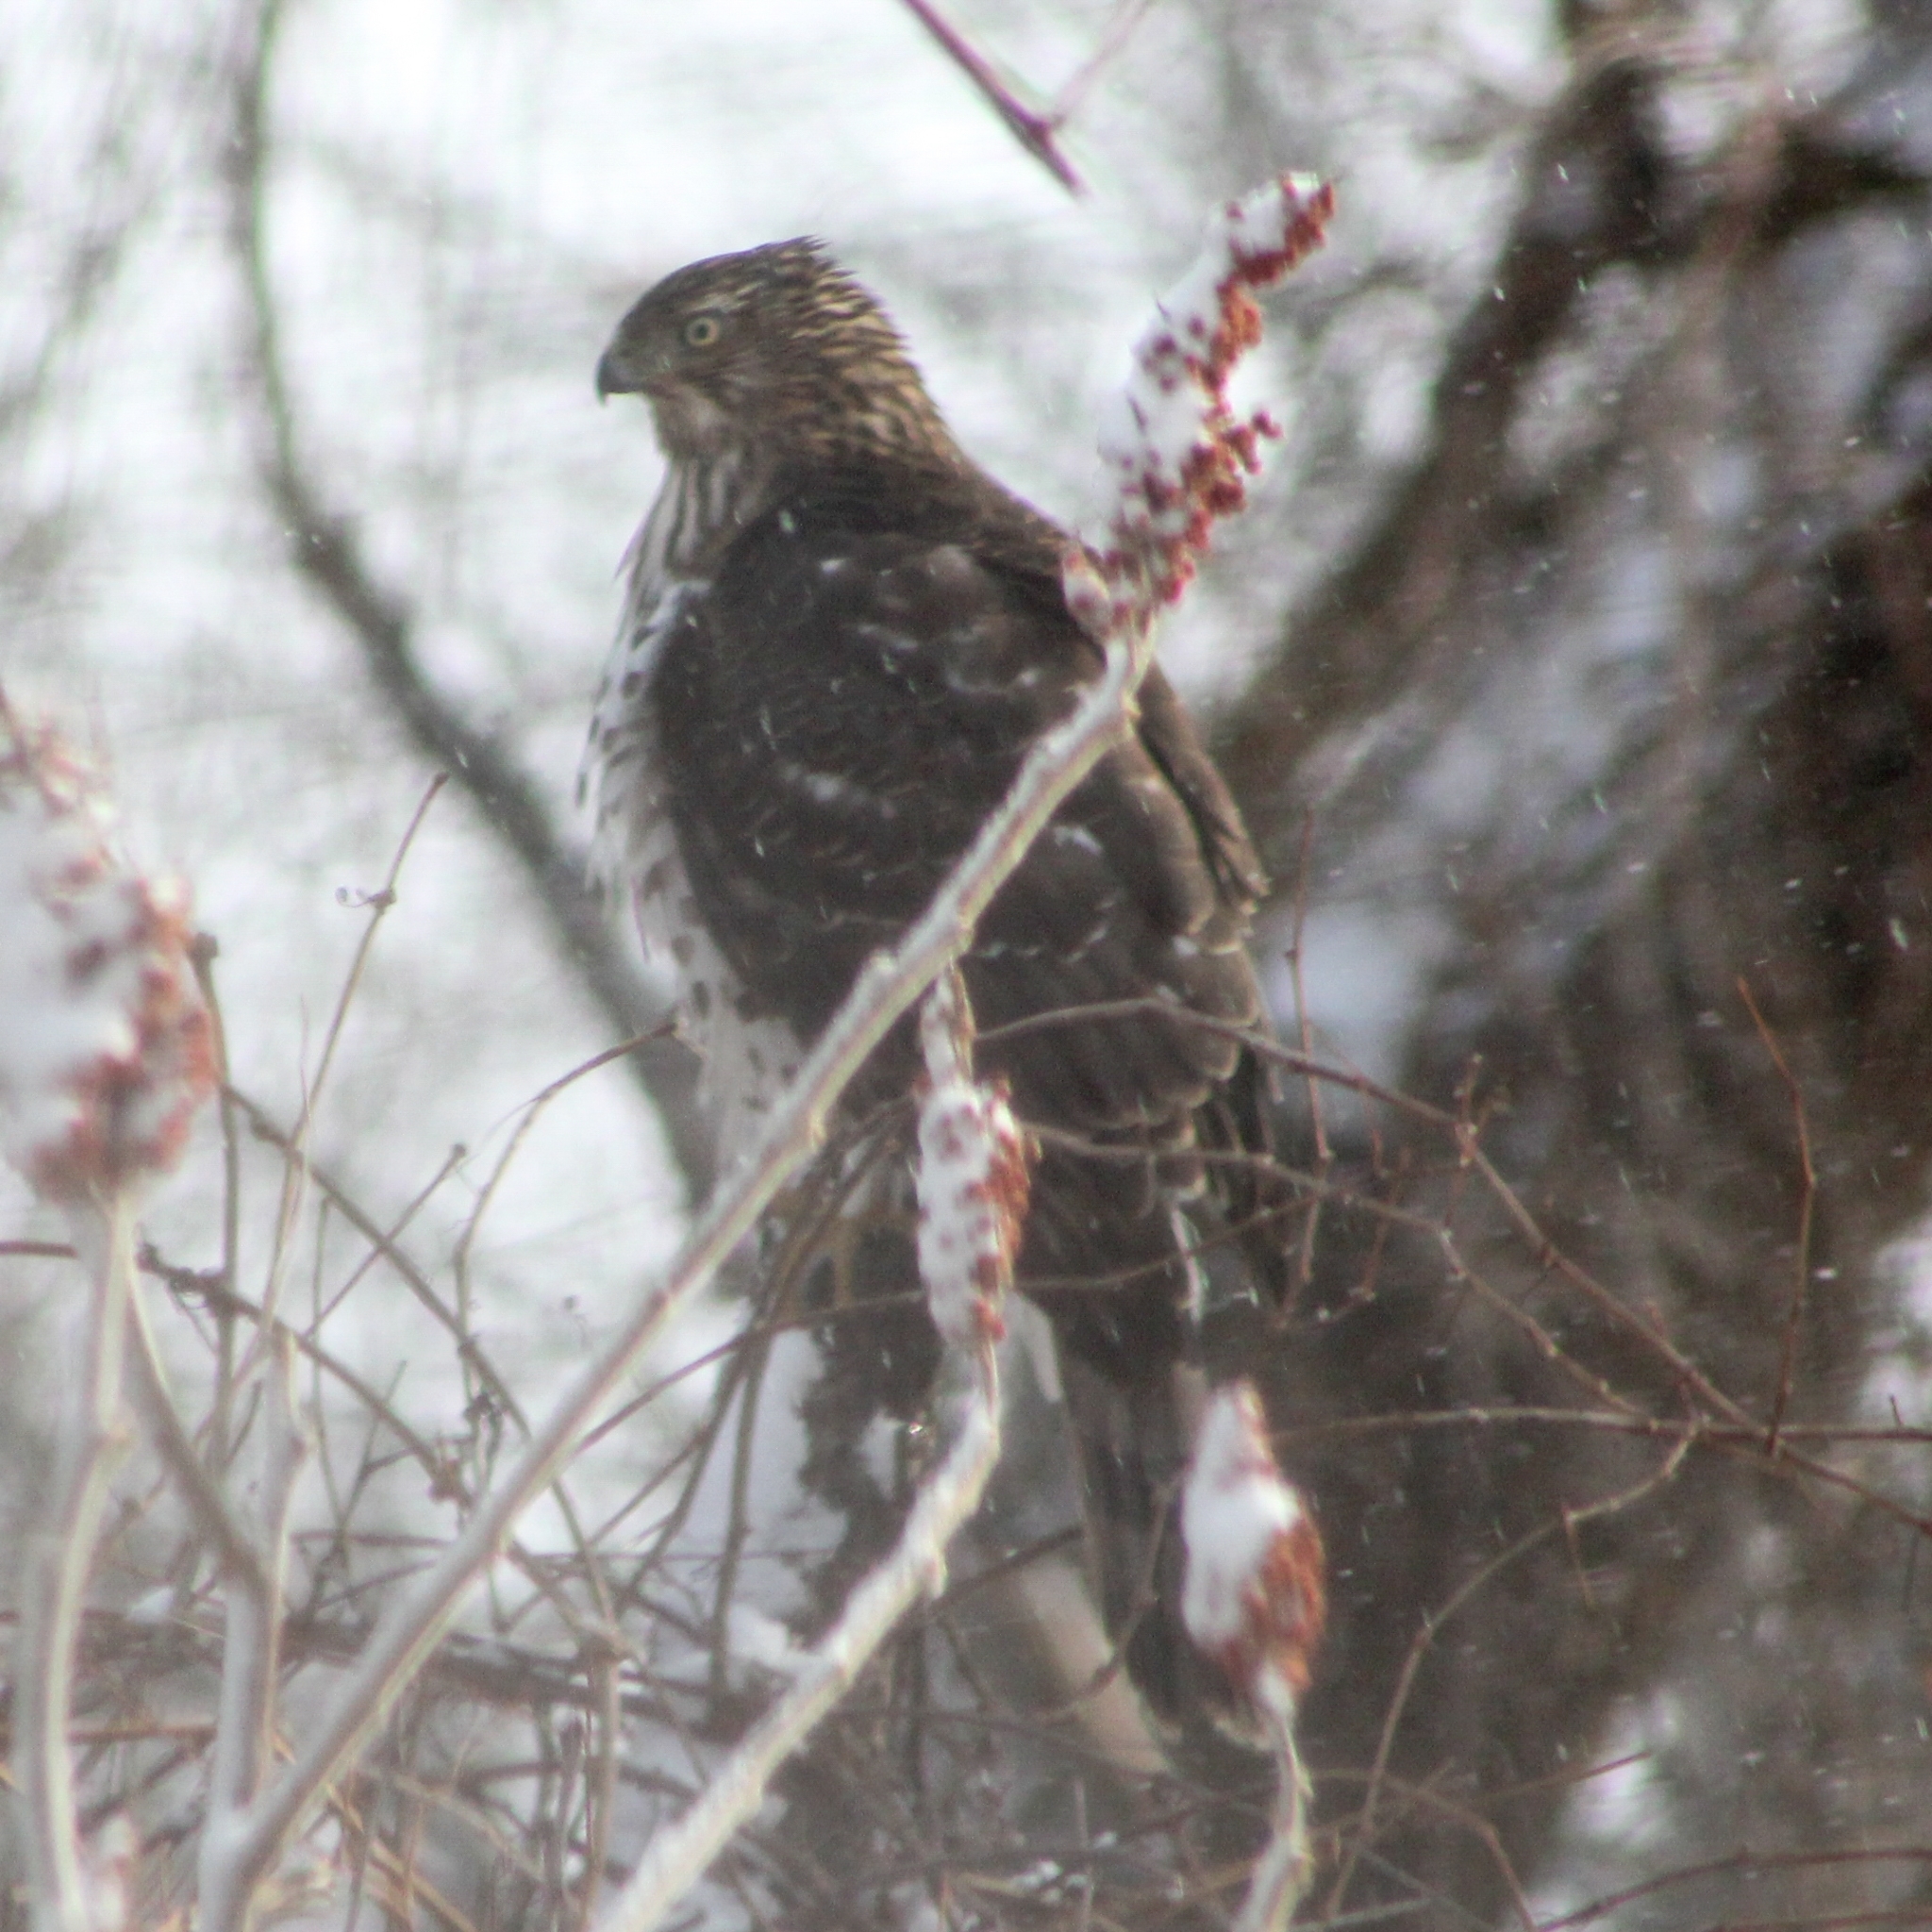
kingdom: Animalia
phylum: Chordata
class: Aves
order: Accipitriformes
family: Accipitridae
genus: Accipiter
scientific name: Accipiter cooperii
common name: Cooper's hawk
